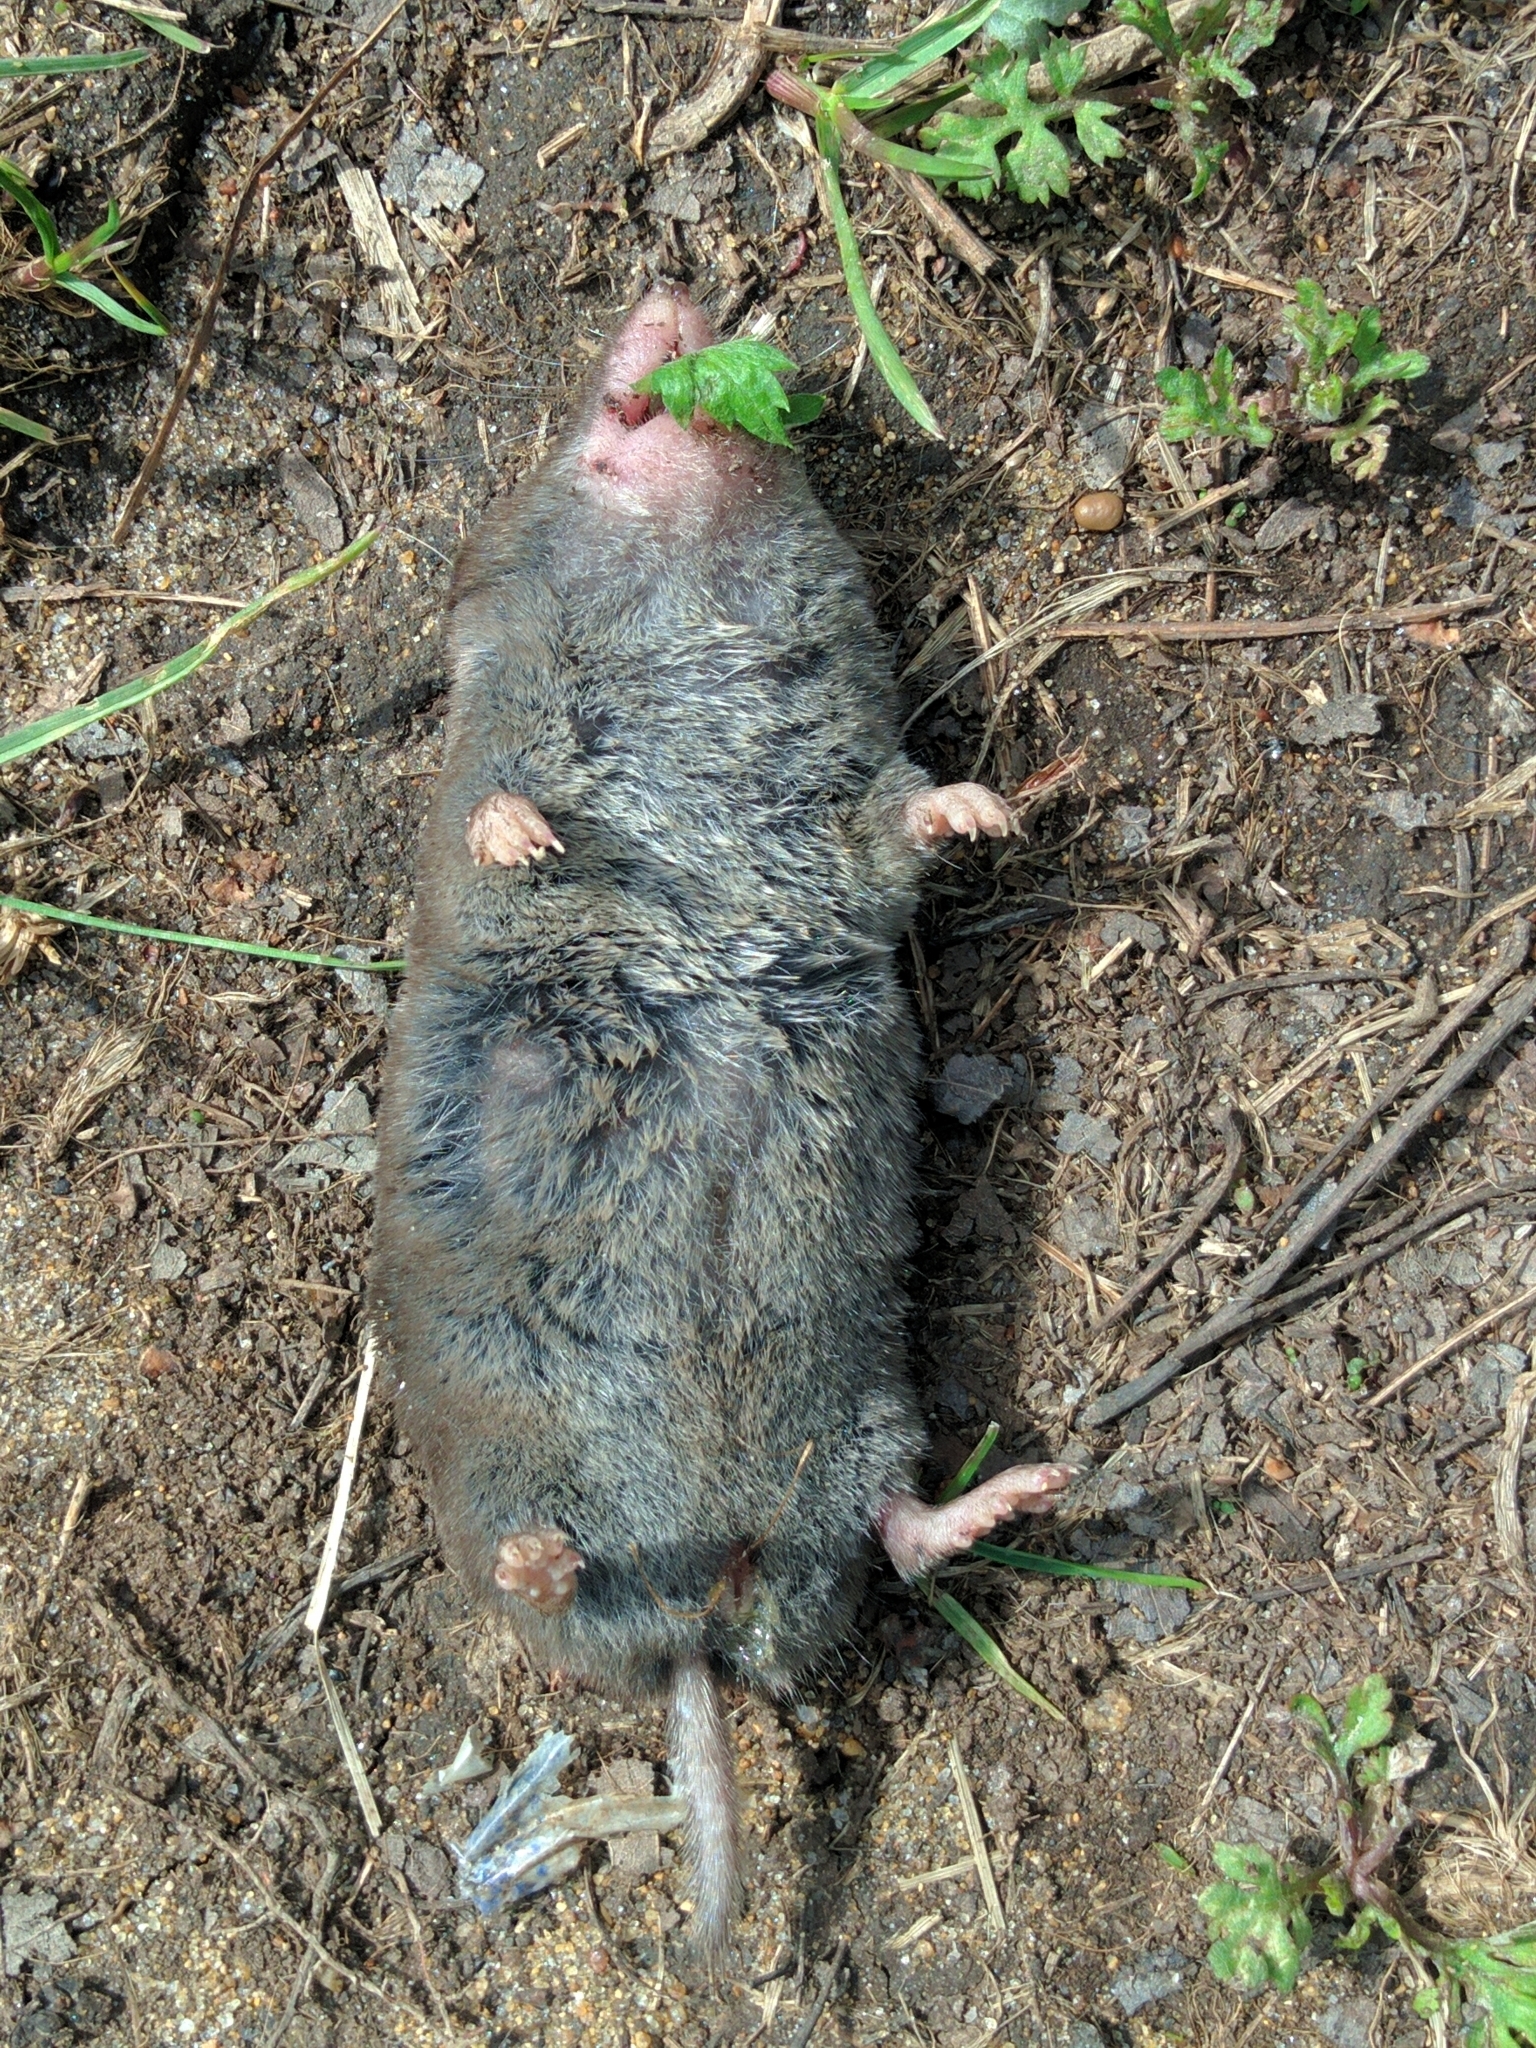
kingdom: Animalia
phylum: Chordata
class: Mammalia
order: Soricomorpha
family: Soricidae
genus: Blarina
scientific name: Blarina brevicauda
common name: Northern short-tailed shrew
